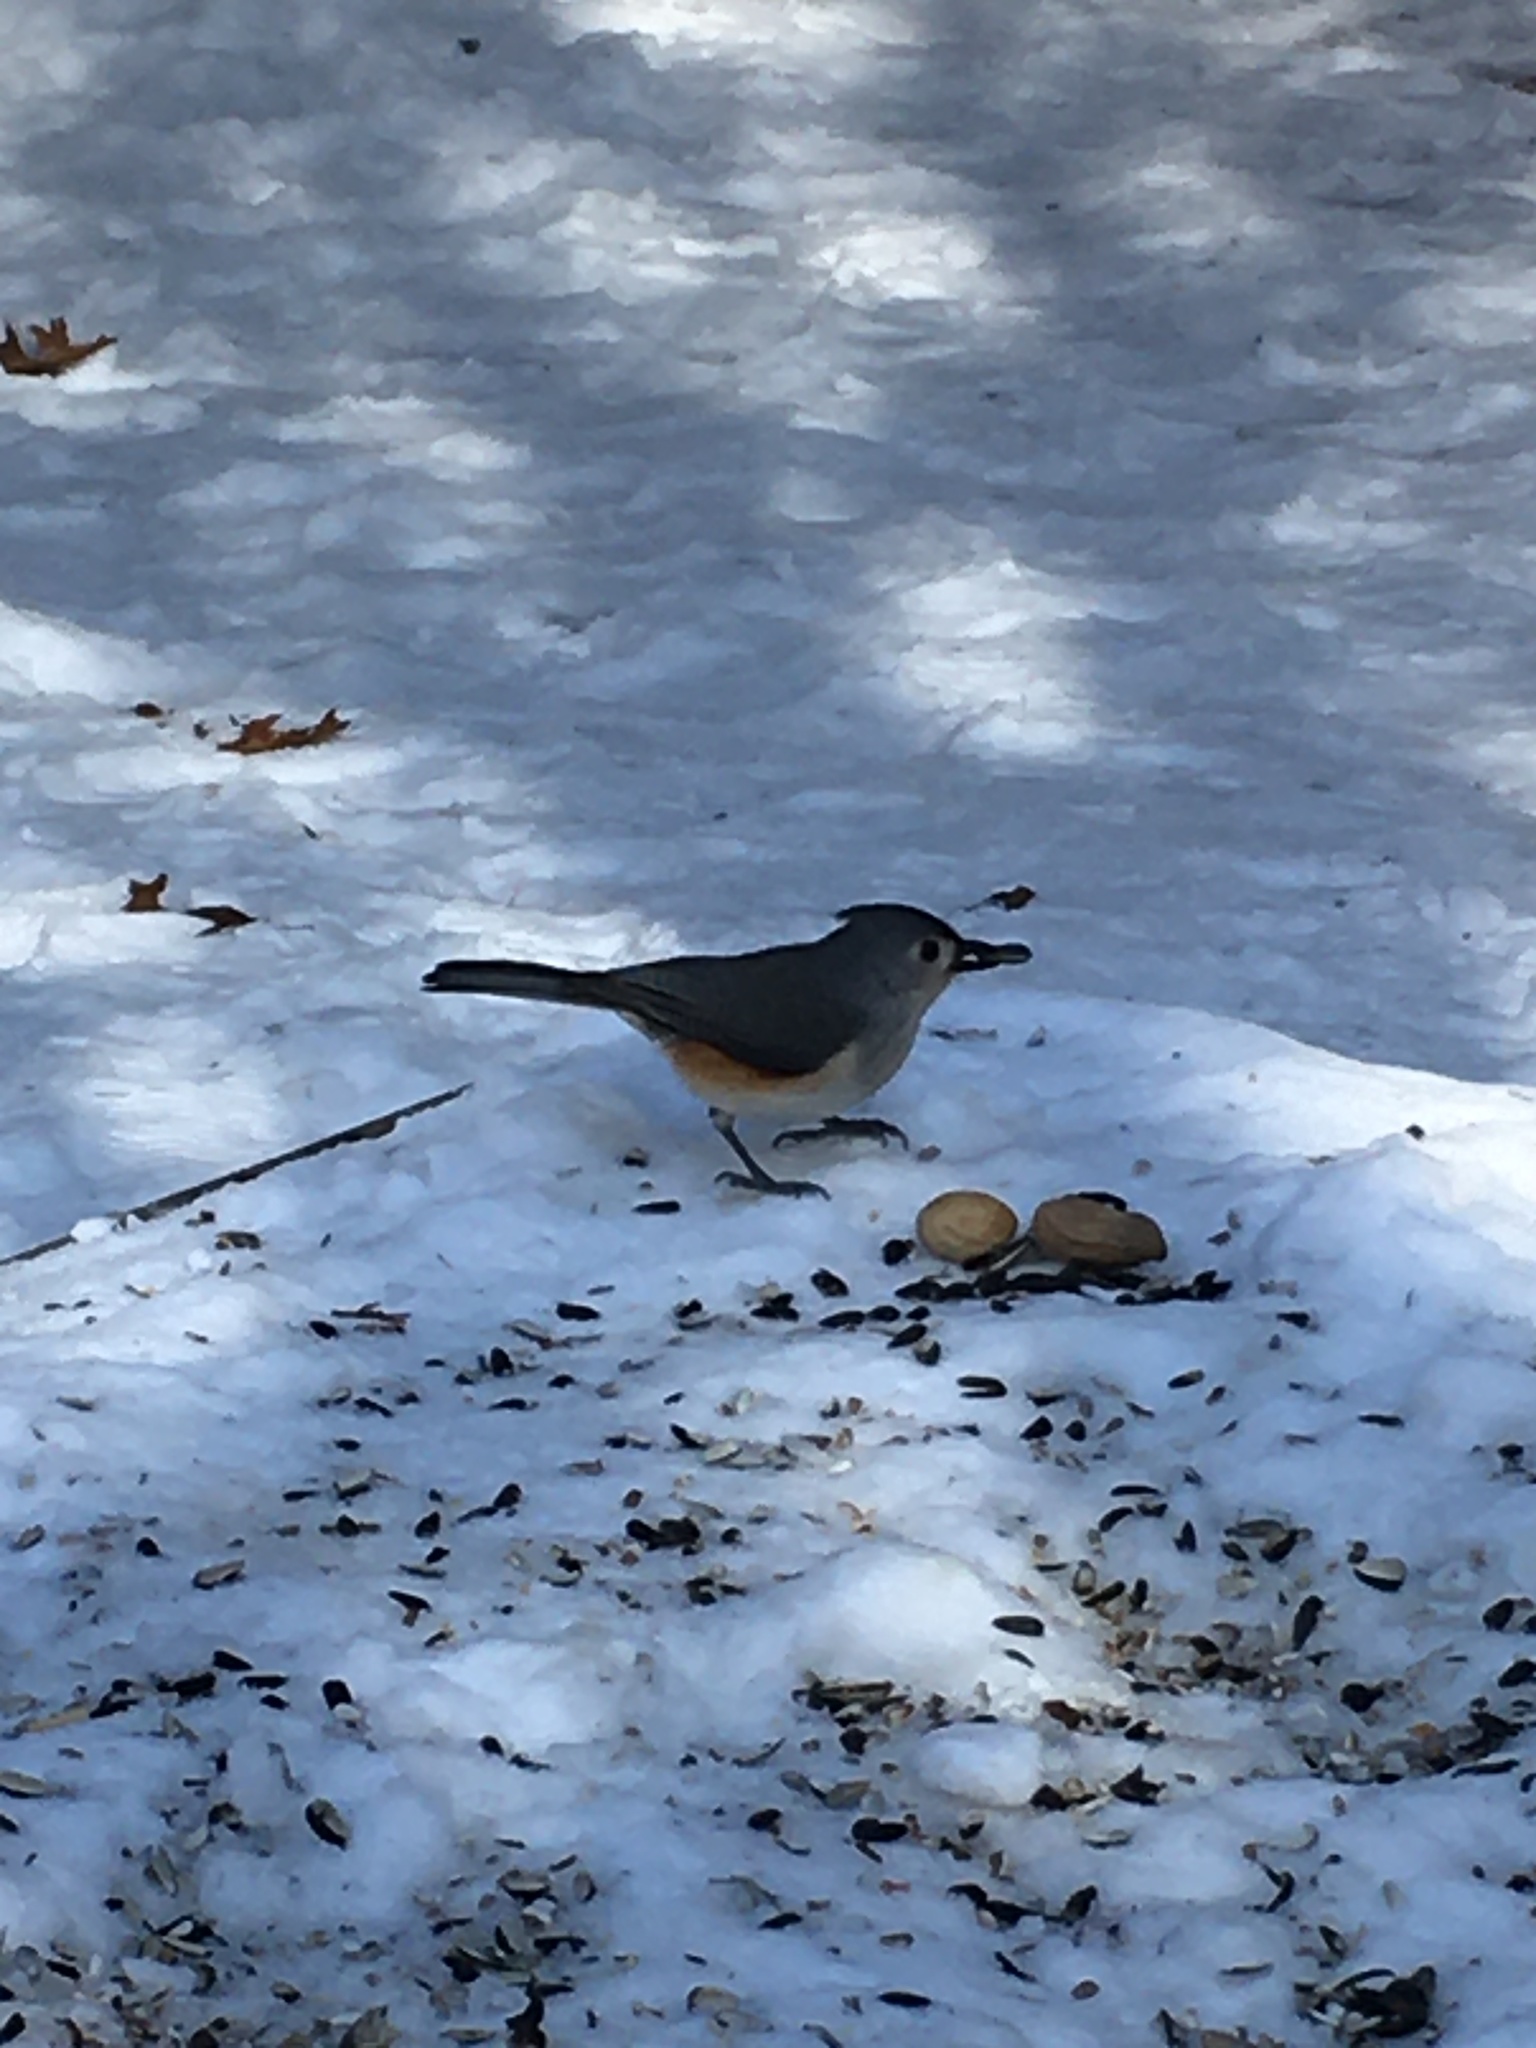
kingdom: Animalia
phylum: Chordata
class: Aves
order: Passeriformes
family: Paridae
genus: Baeolophus
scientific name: Baeolophus bicolor
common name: Tufted titmouse
